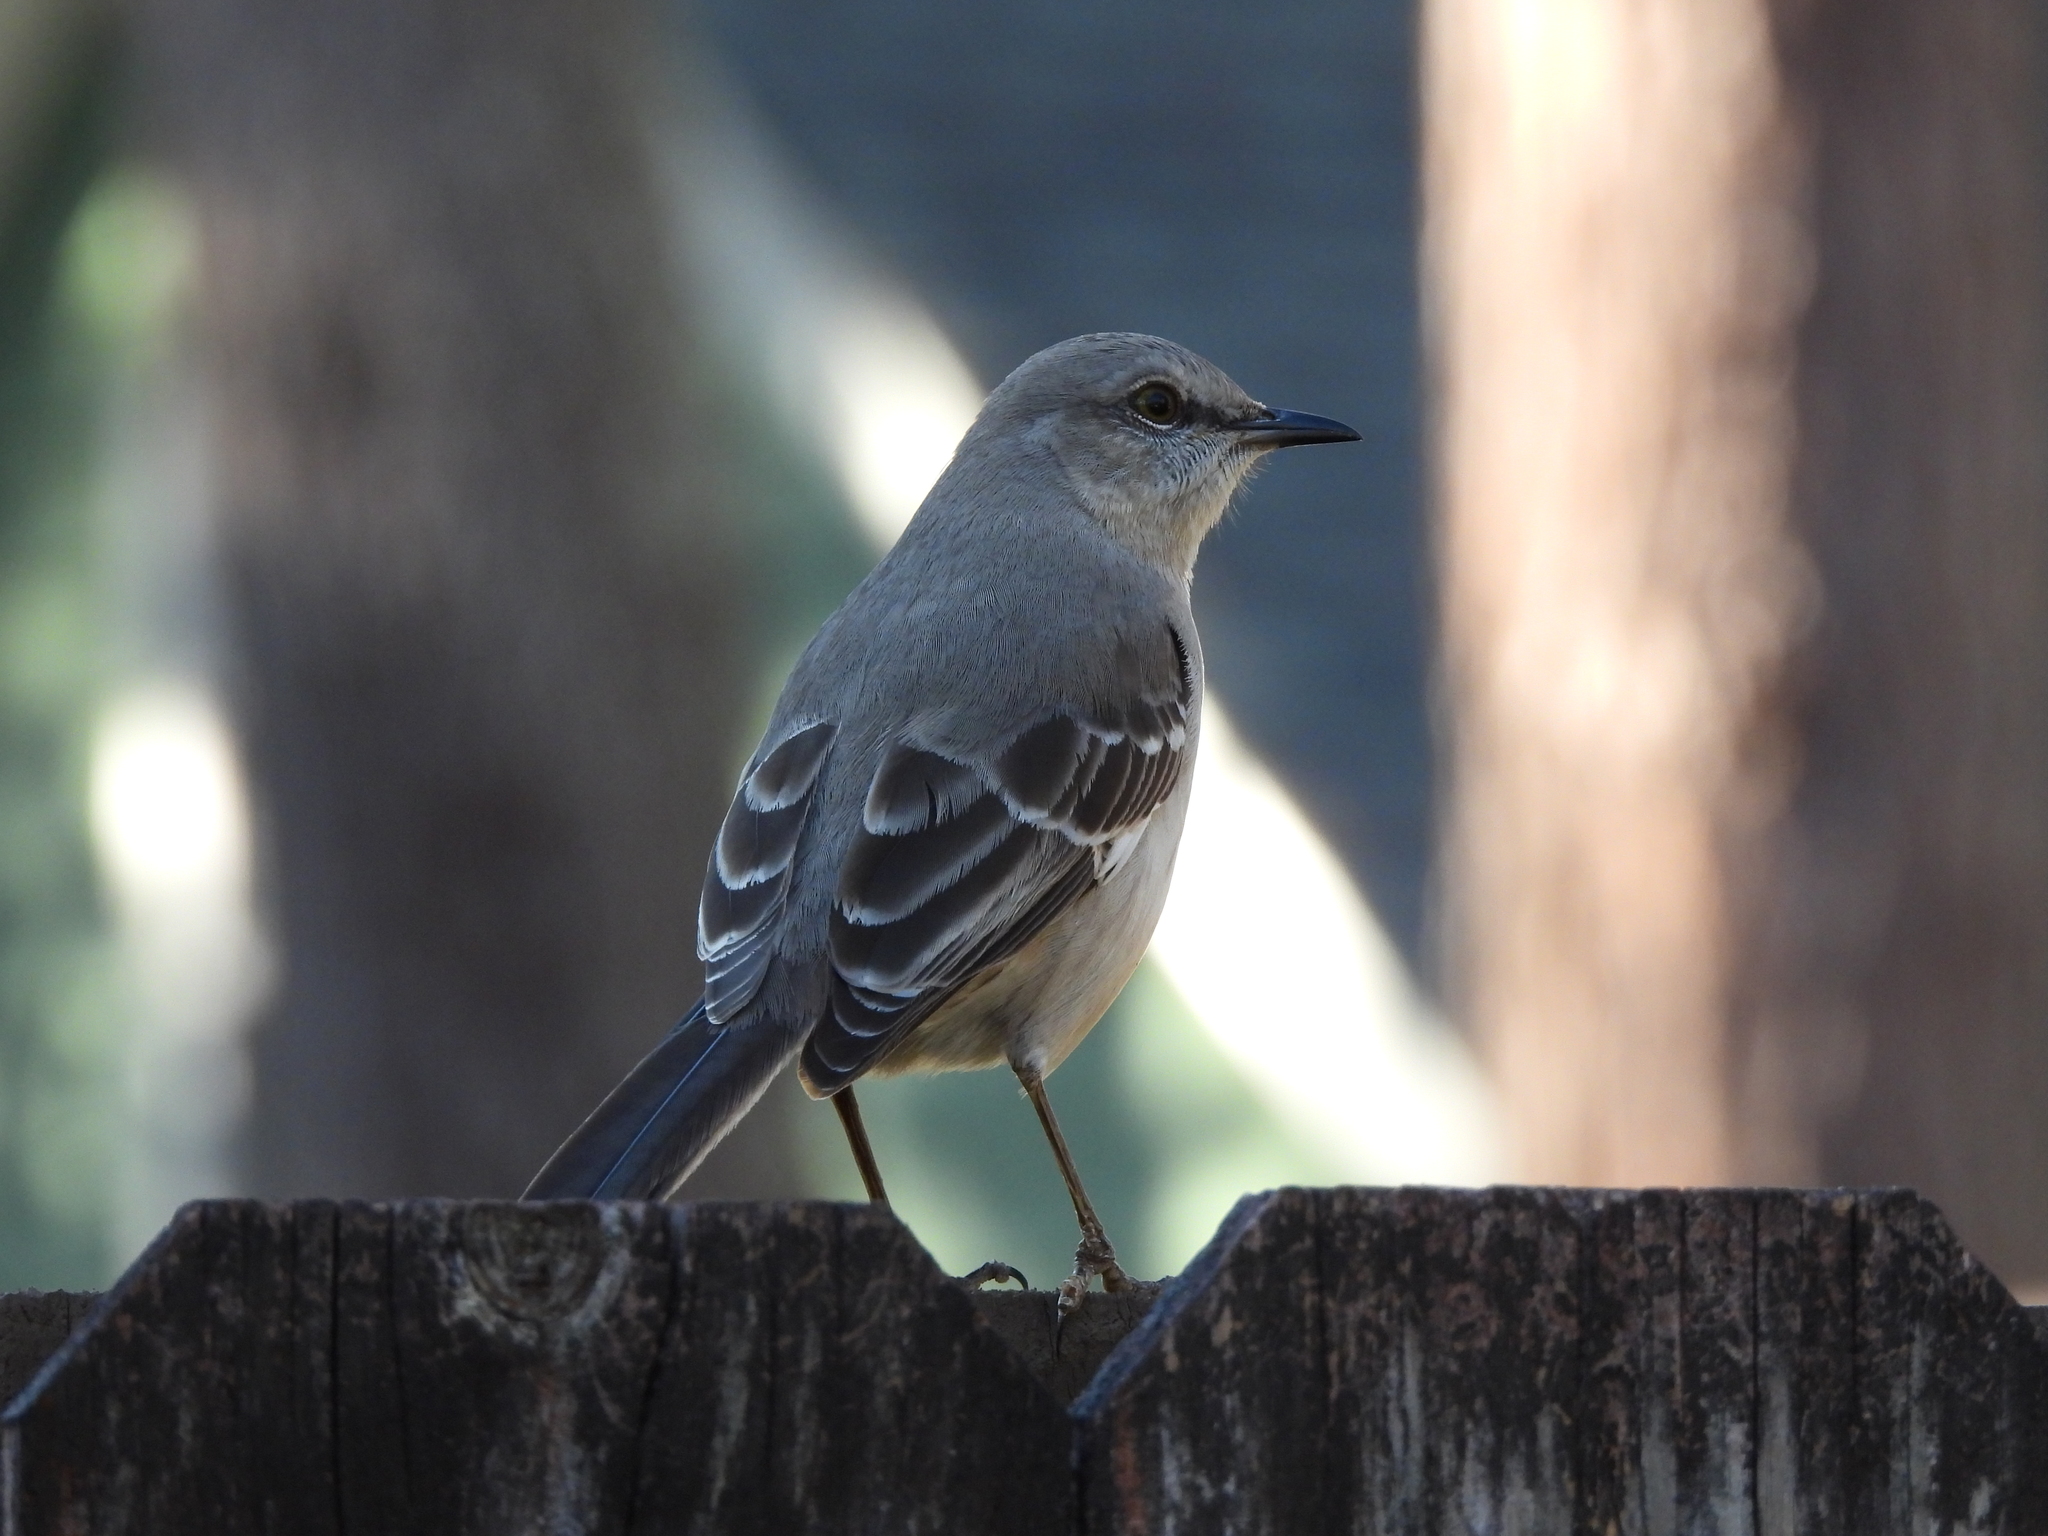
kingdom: Animalia
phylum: Chordata
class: Aves
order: Passeriformes
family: Mimidae
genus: Mimus
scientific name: Mimus polyglottos
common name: Northern mockingbird
